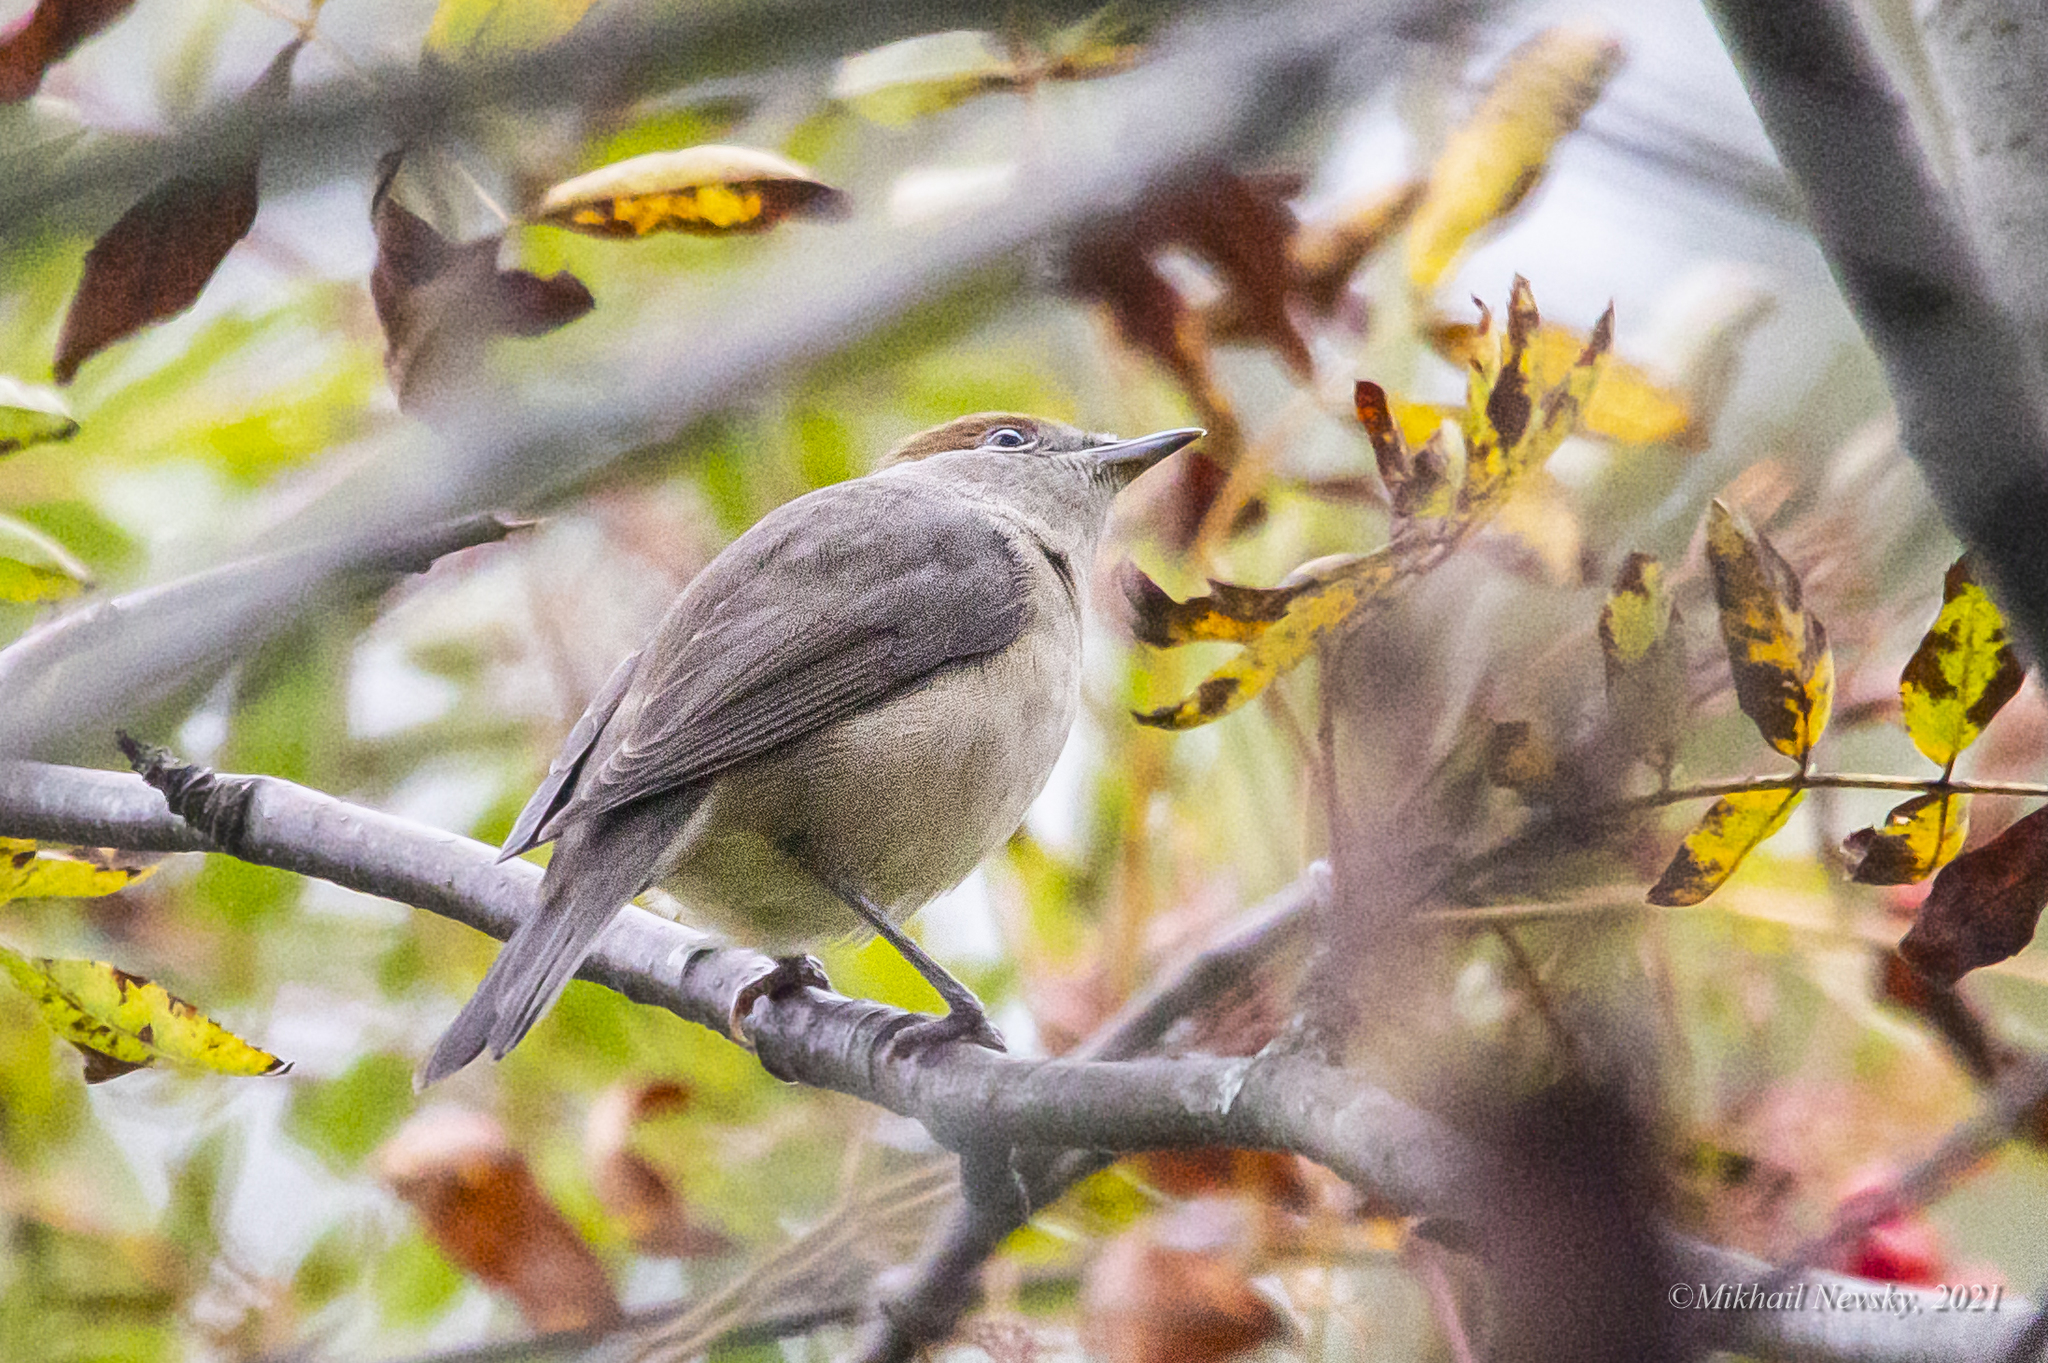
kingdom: Animalia
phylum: Chordata
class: Aves
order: Passeriformes
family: Sylviidae
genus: Sylvia
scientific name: Sylvia atricapilla
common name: Eurasian blackcap
